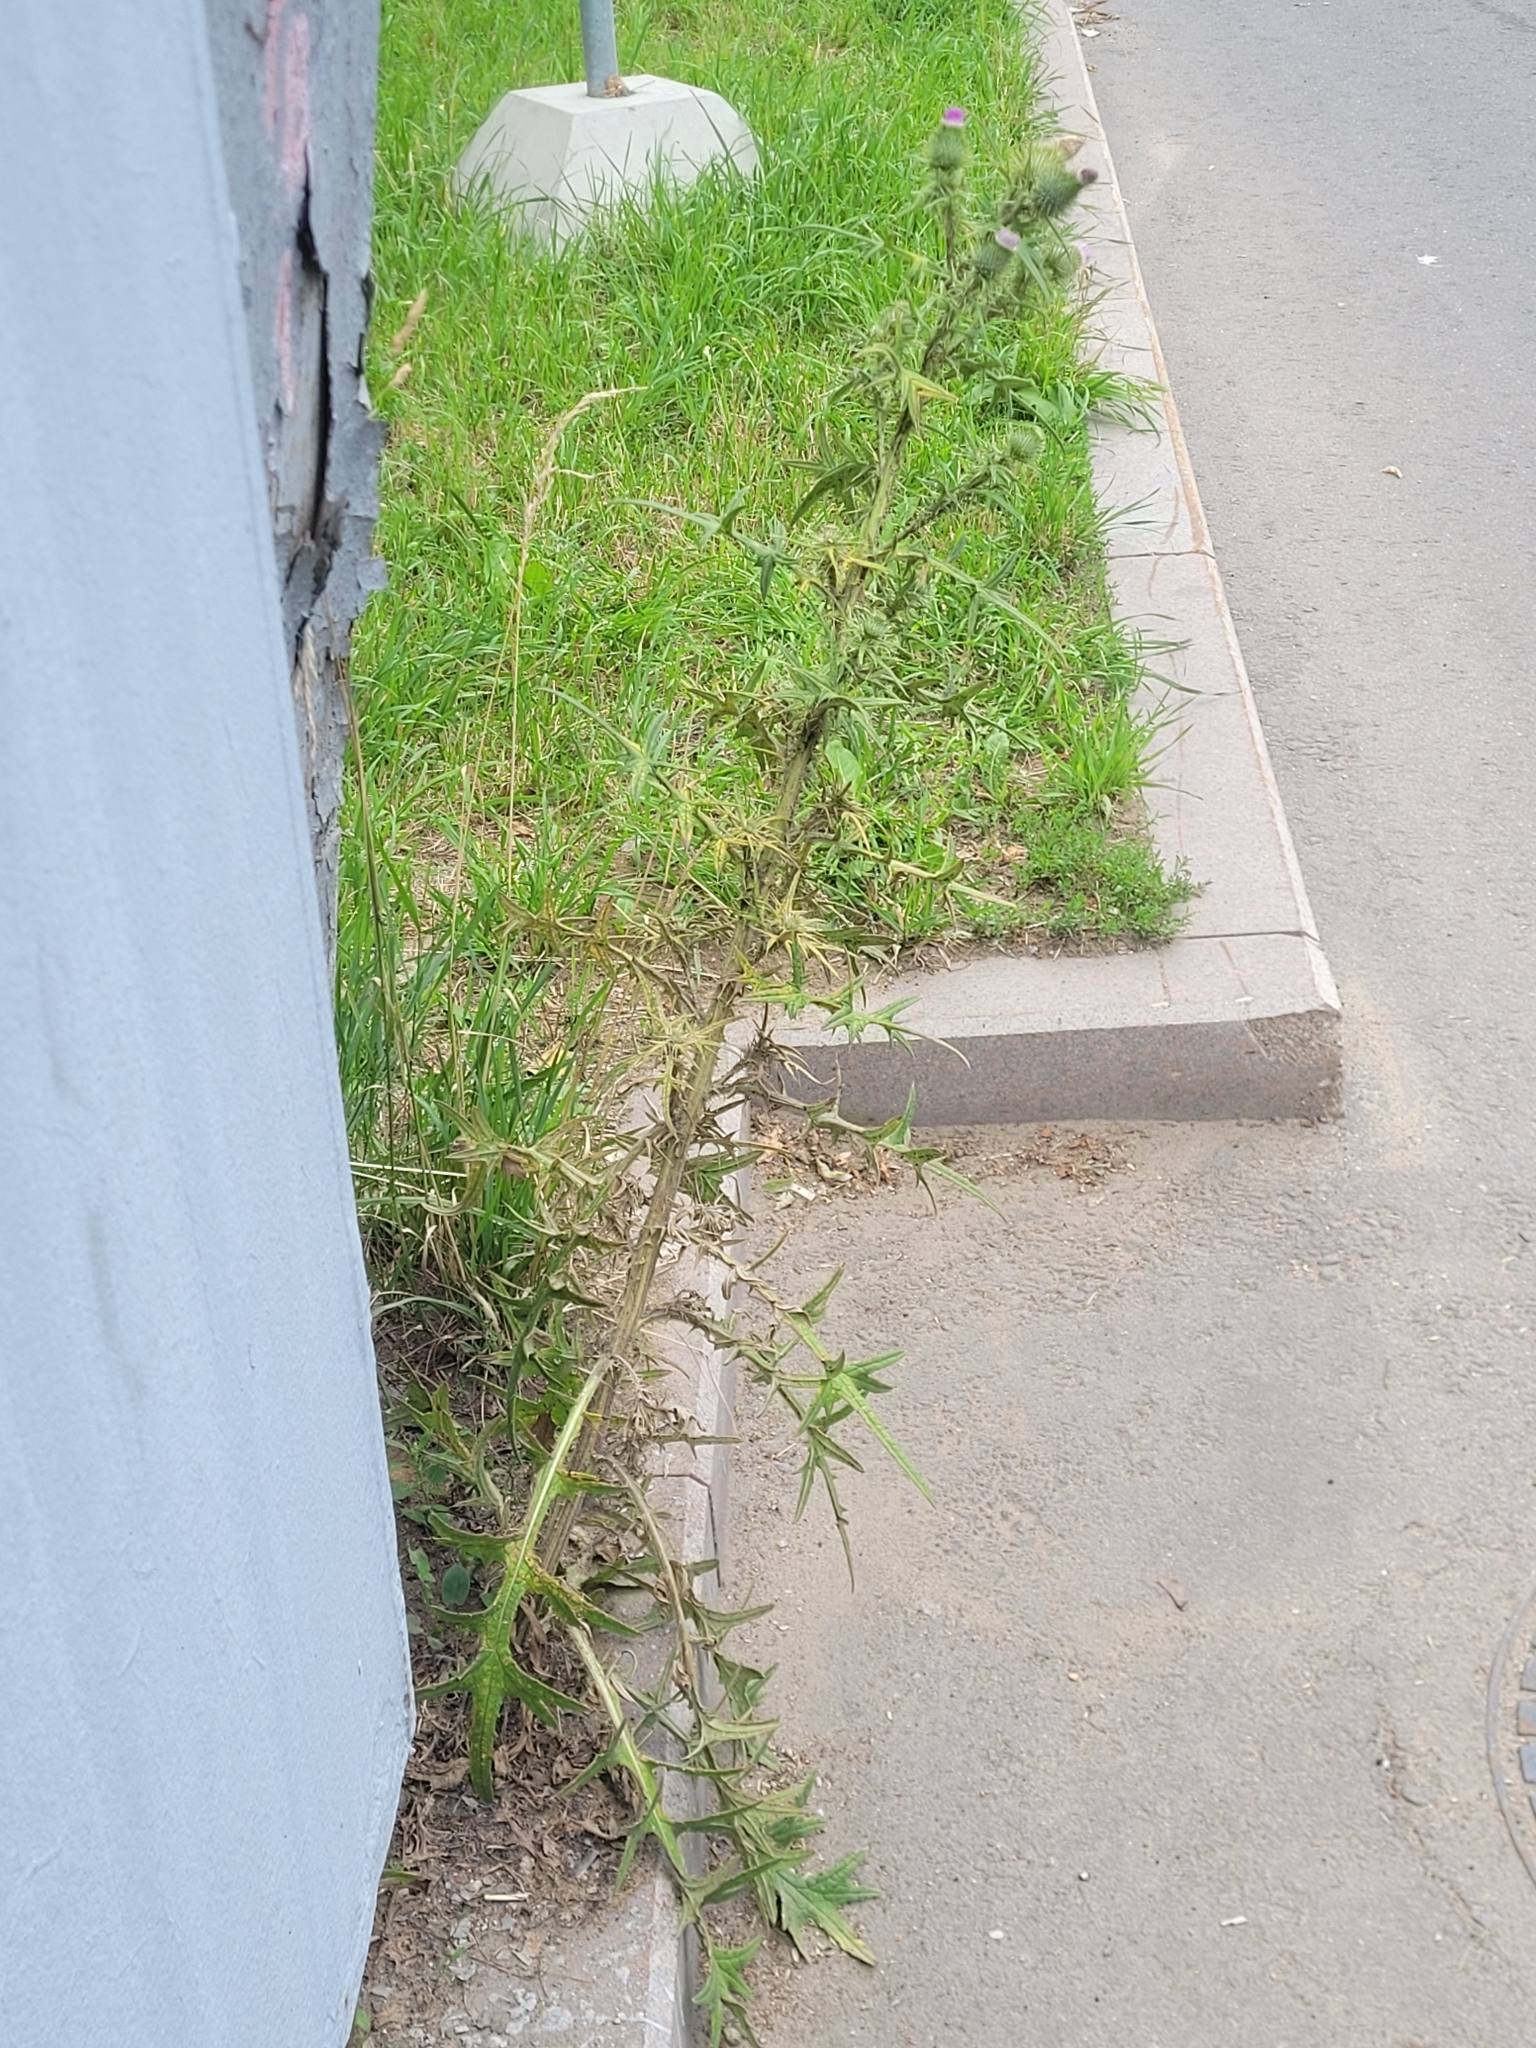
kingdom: Plantae
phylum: Tracheophyta
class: Magnoliopsida
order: Asterales
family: Asteraceae
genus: Cirsium
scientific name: Cirsium vulgare
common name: Bull thistle
